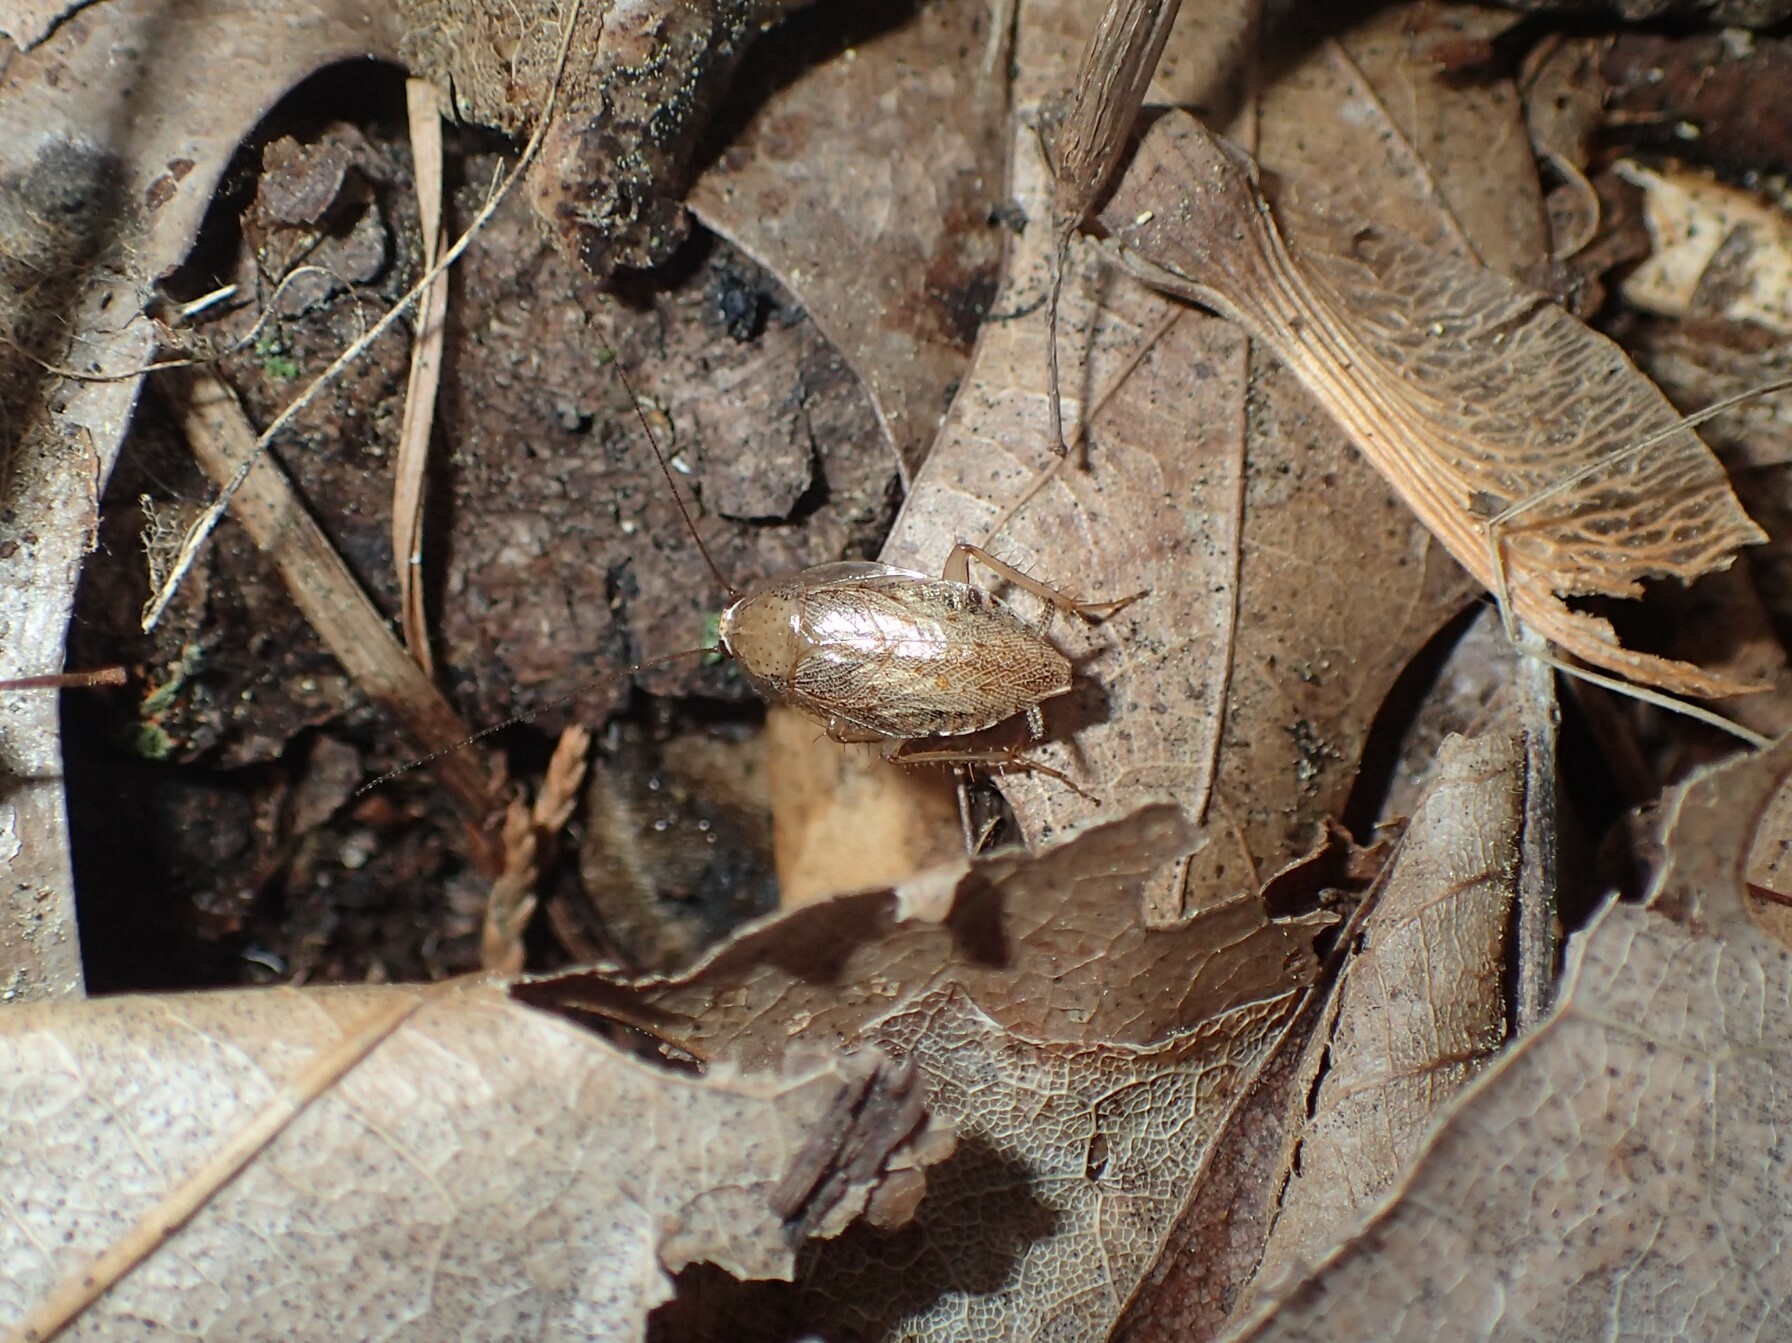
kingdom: Animalia
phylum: Arthropoda
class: Insecta
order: Blattodea
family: Ectobiidae
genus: Ectobius
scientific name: Ectobius pallidus
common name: Tawny cockroach
